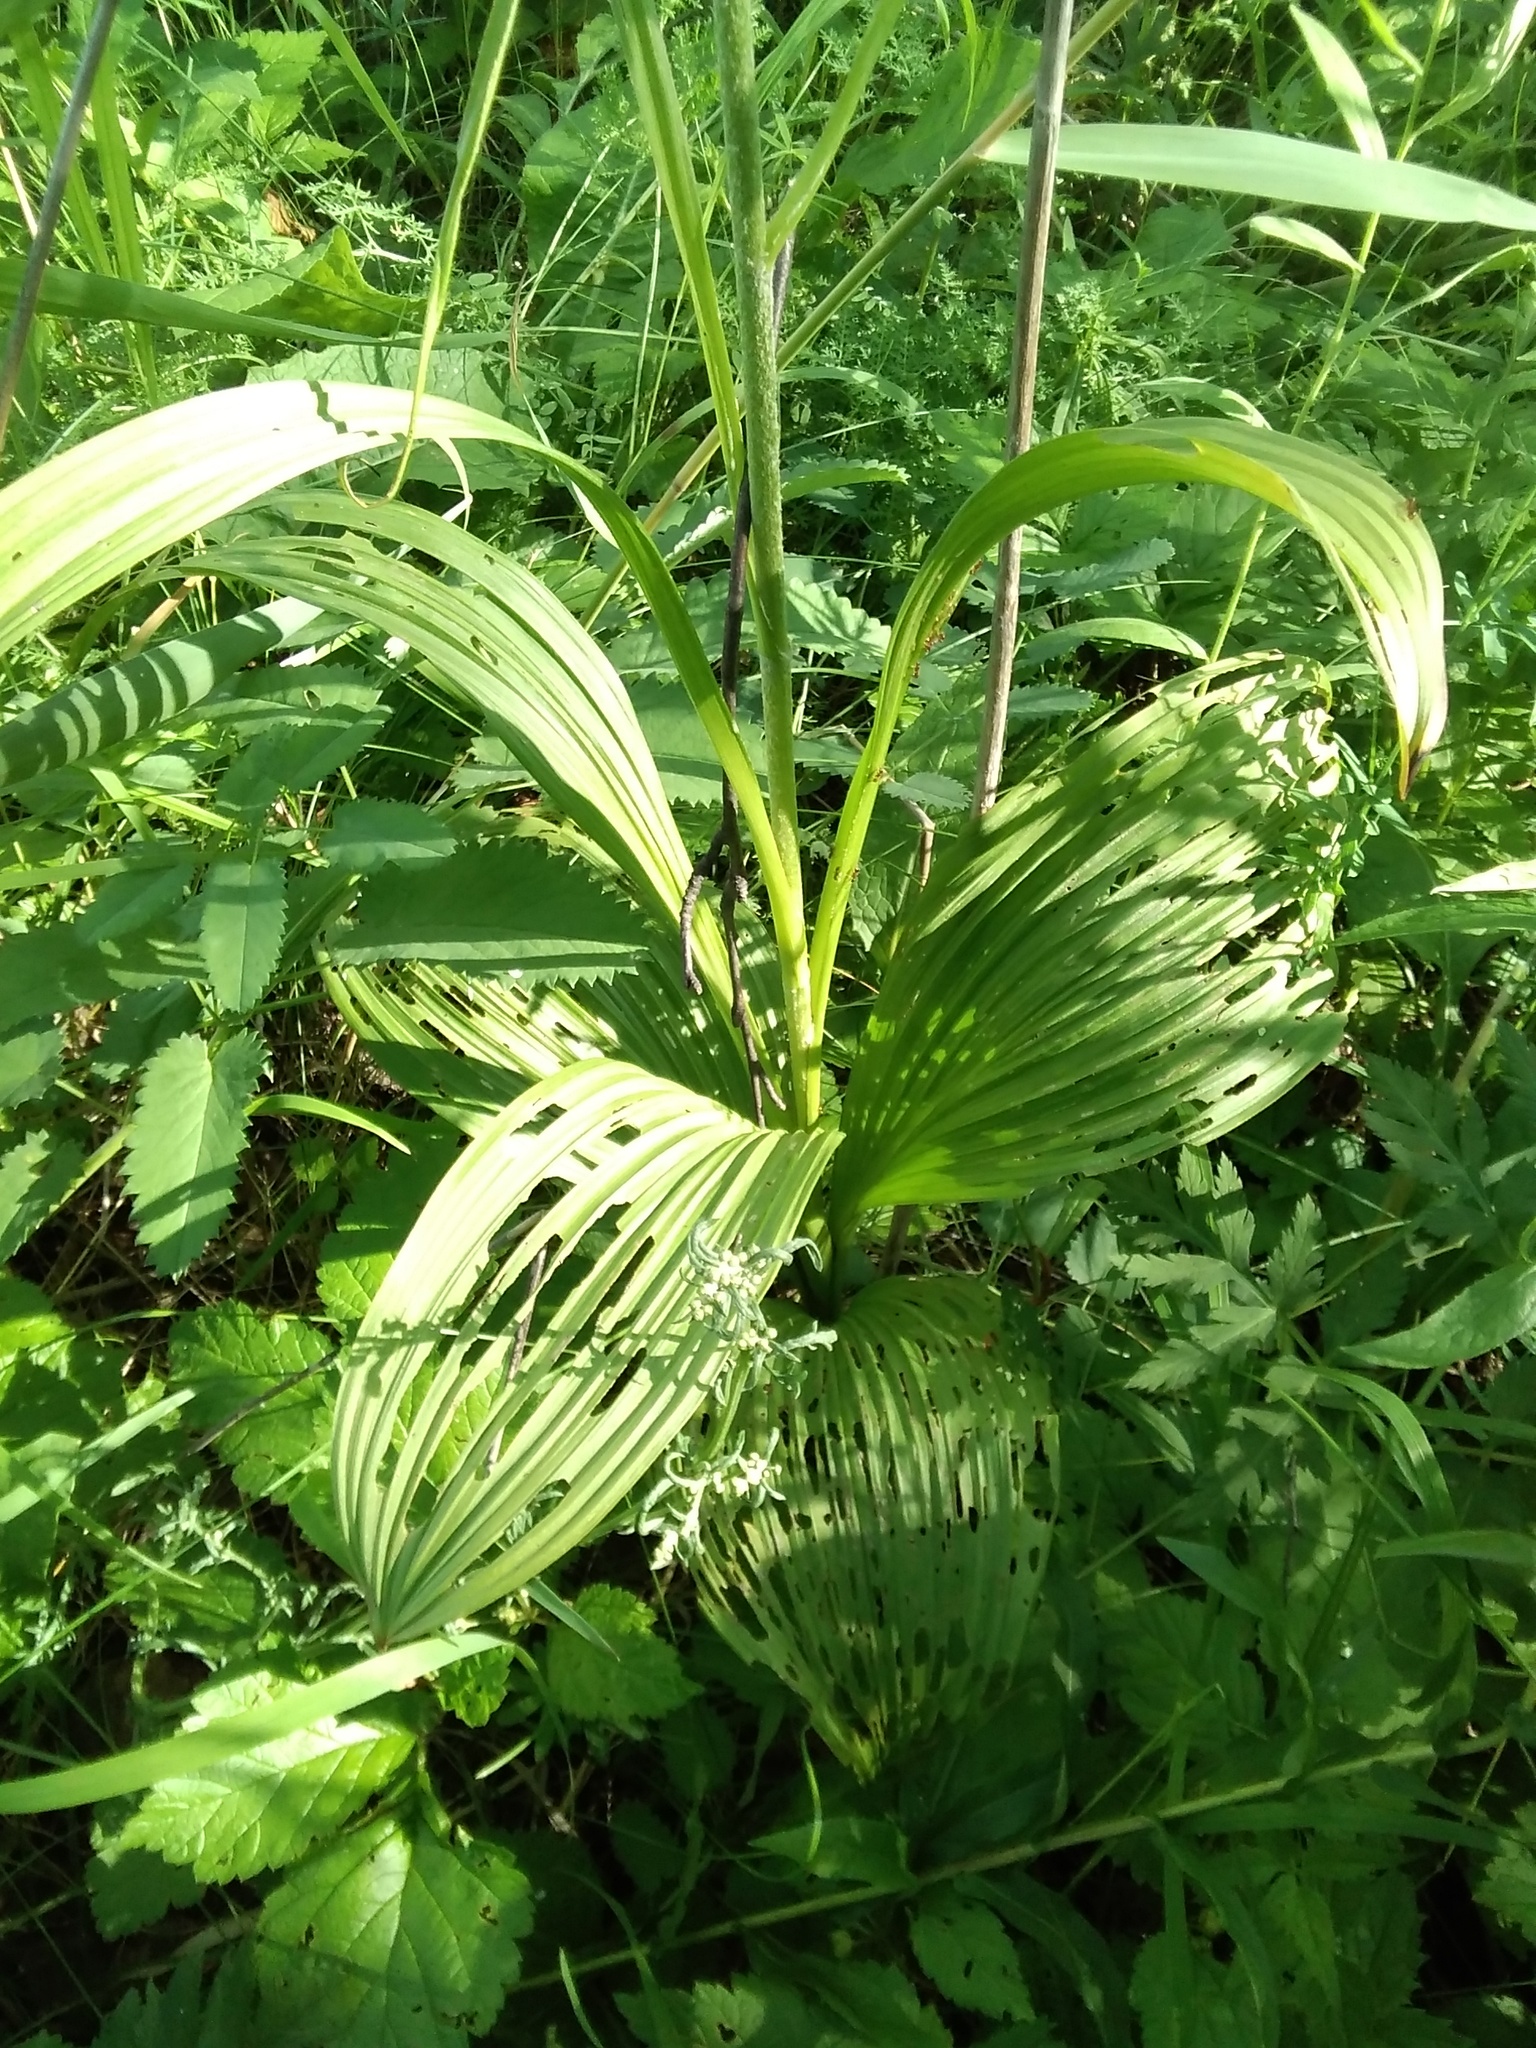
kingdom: Plantae
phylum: Tracheophyta
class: Liliopsida
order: Liliales
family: Melanthiaceae
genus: Veratrum
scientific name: Veratrum nigrum
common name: Black veratrum
